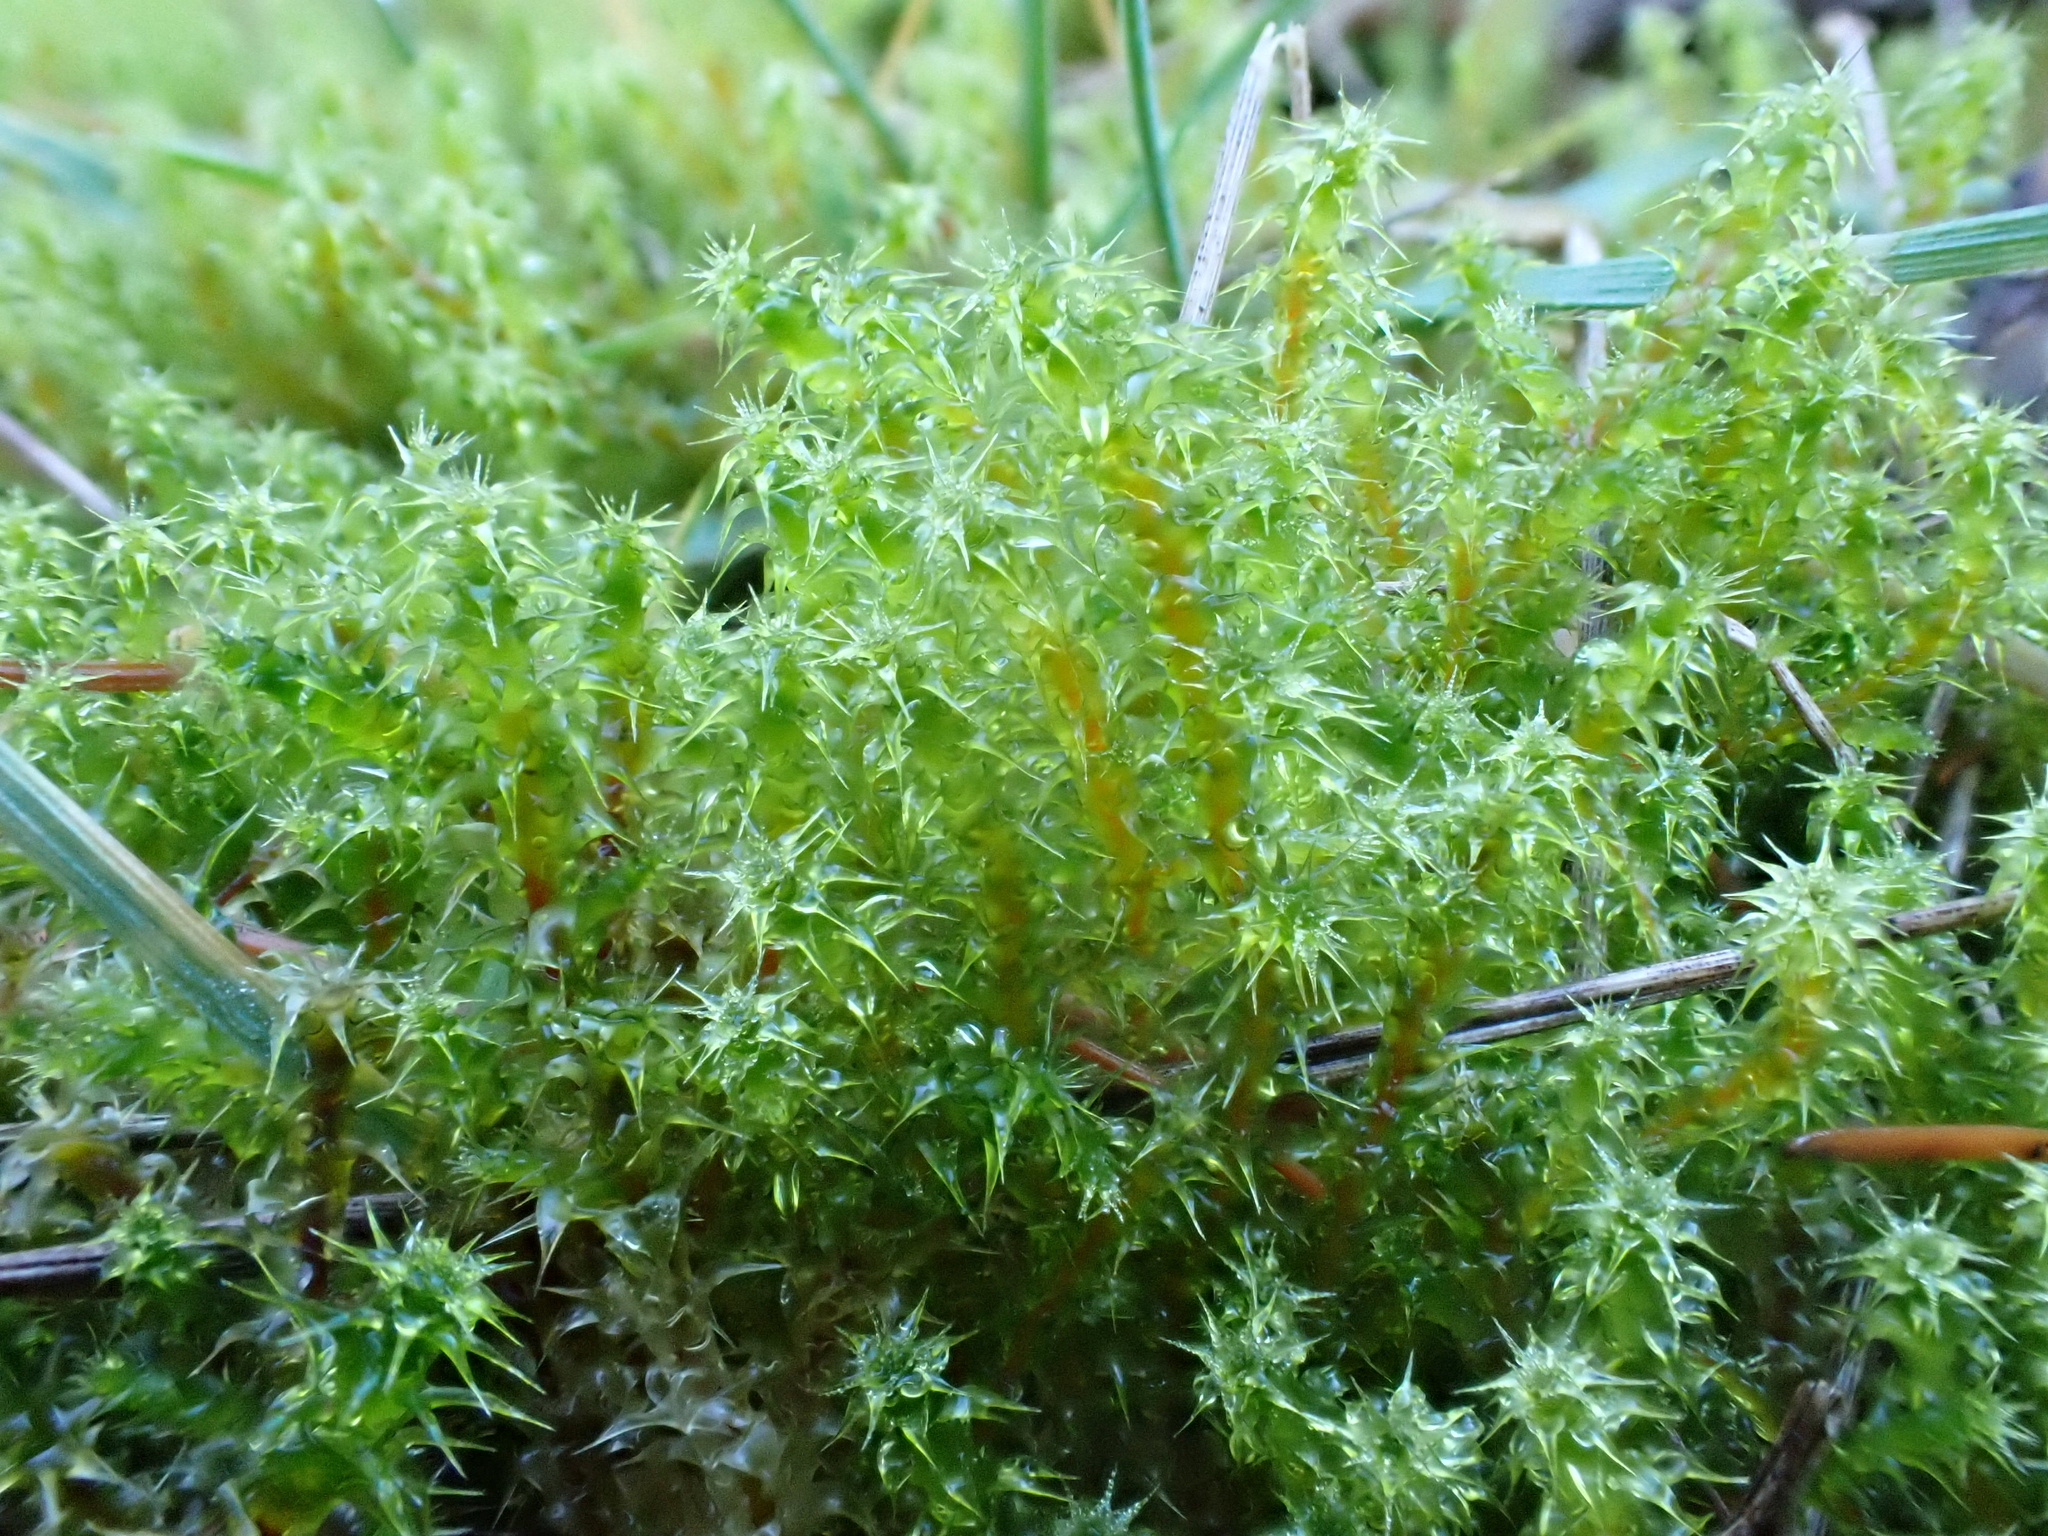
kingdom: Plantae
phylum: Bryophyta
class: Bryopsida
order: Hypnales
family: Hylocomiaceae
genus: Rhytidiadelphus
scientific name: Rhytidiadelphus squarrosus
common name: Springy turf-moss
